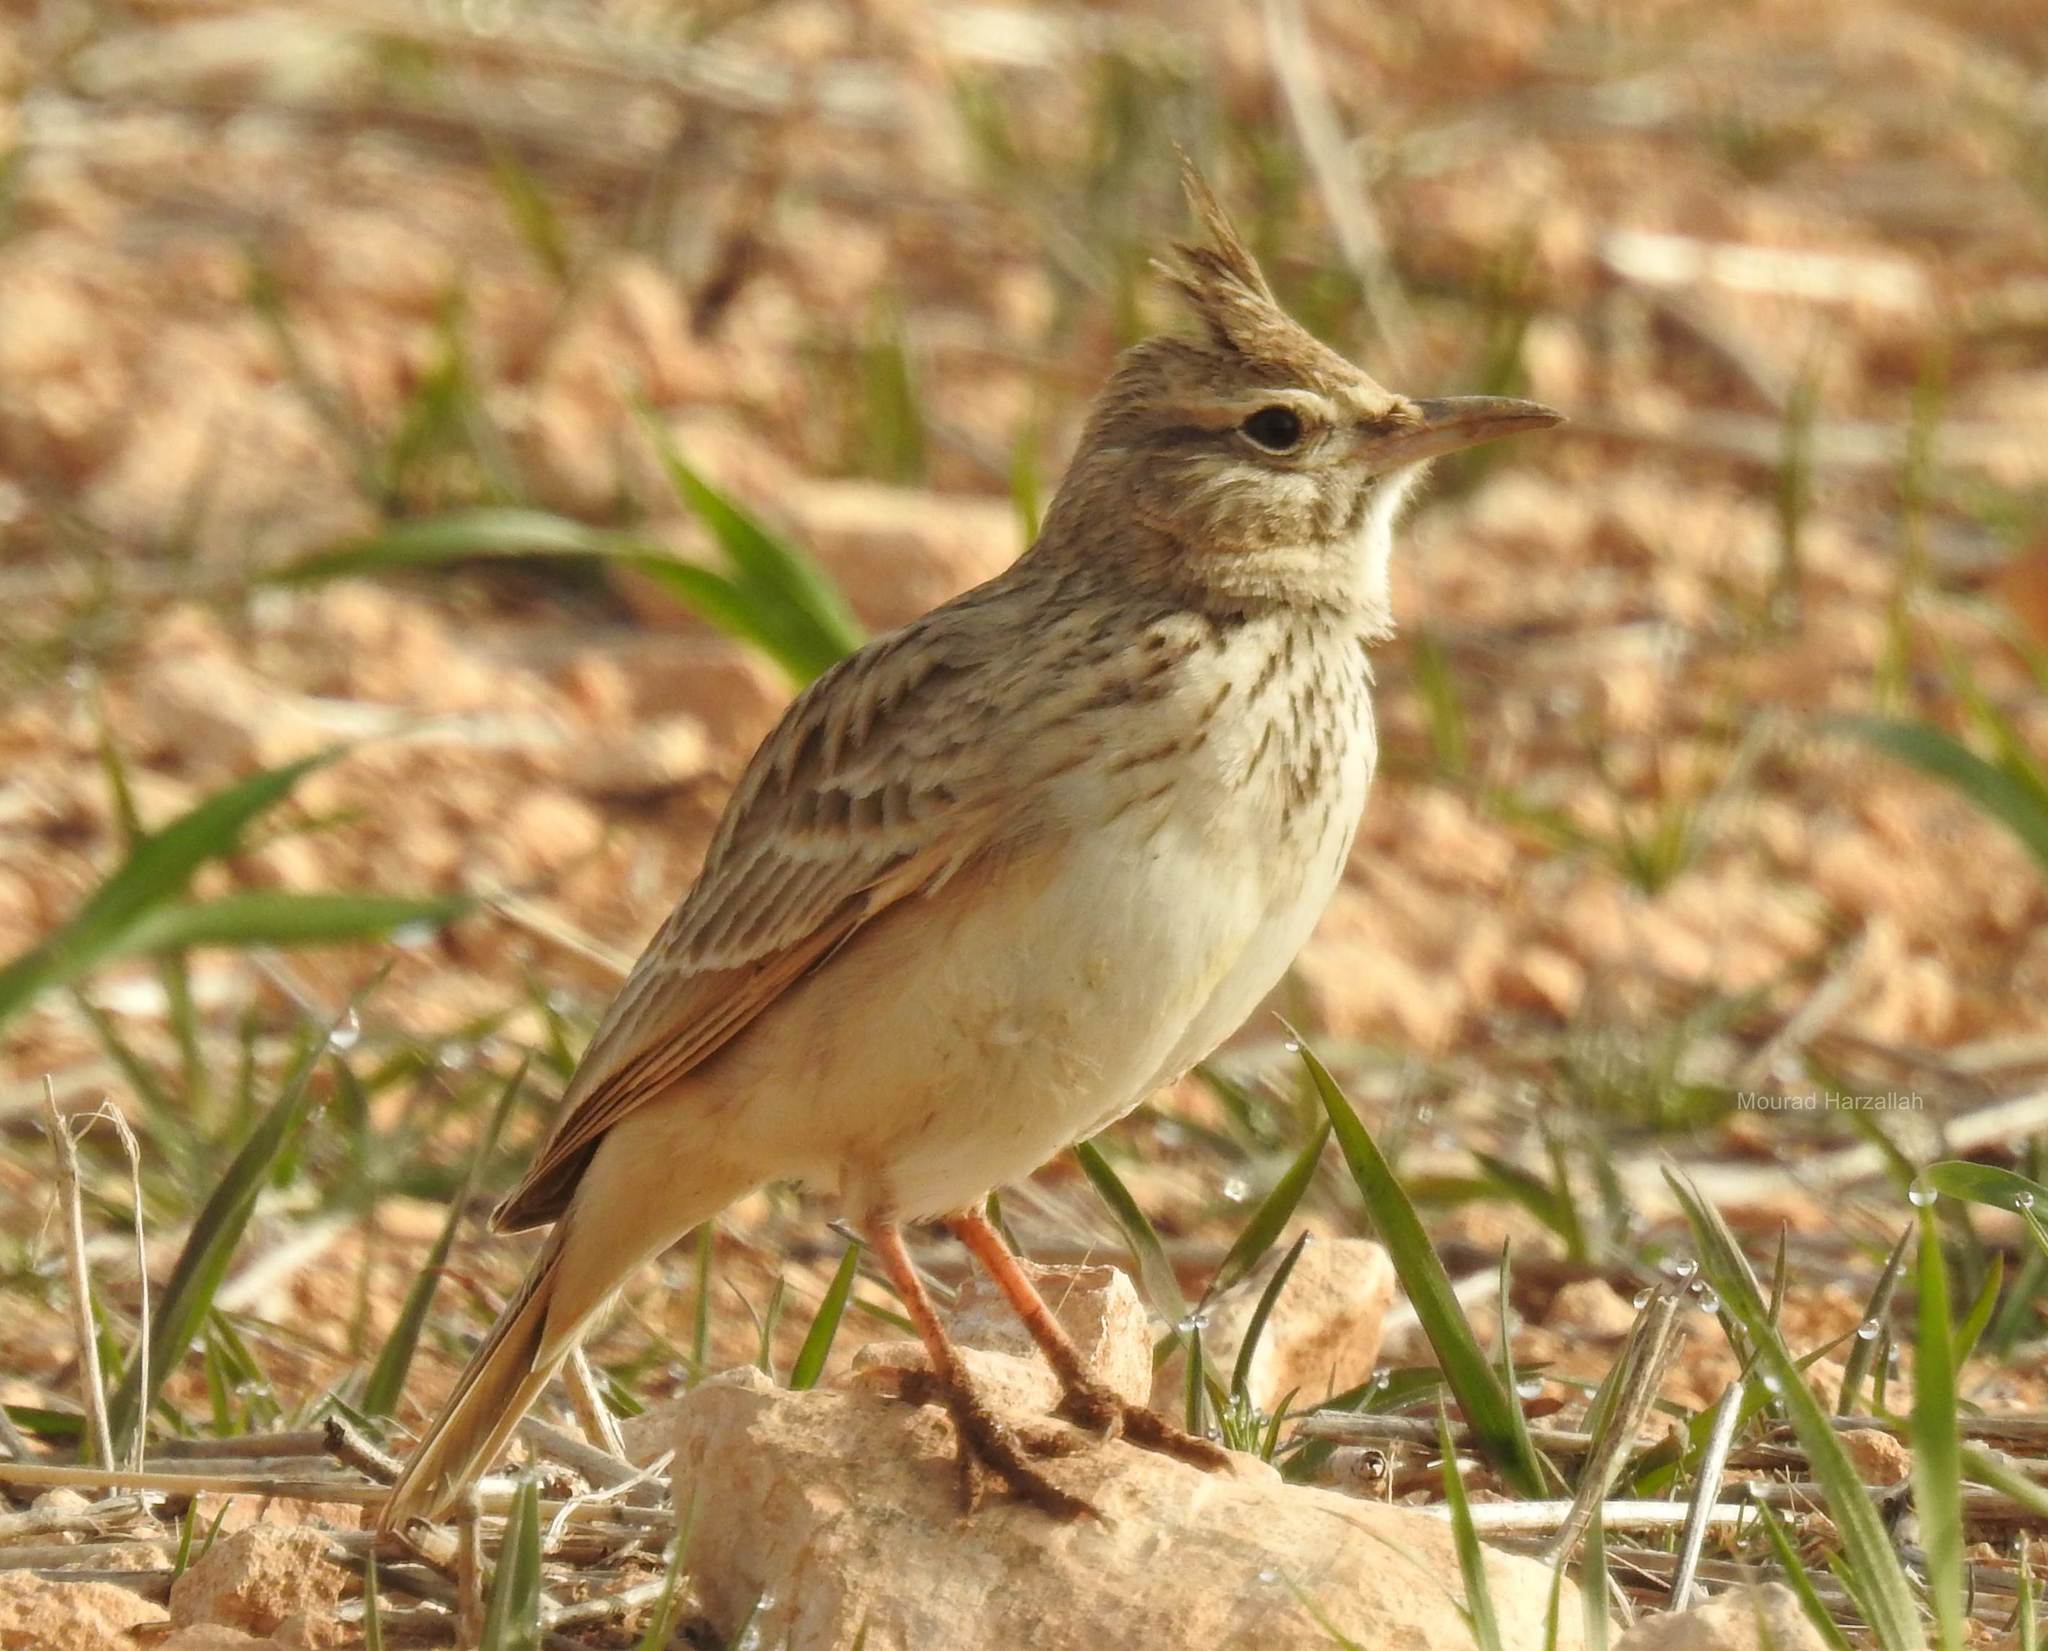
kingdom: Animalia
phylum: Chordata
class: Aves
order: Passeriformes
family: Alaudidae
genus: Galerida
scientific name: Galerida cristata
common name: Crested lark
